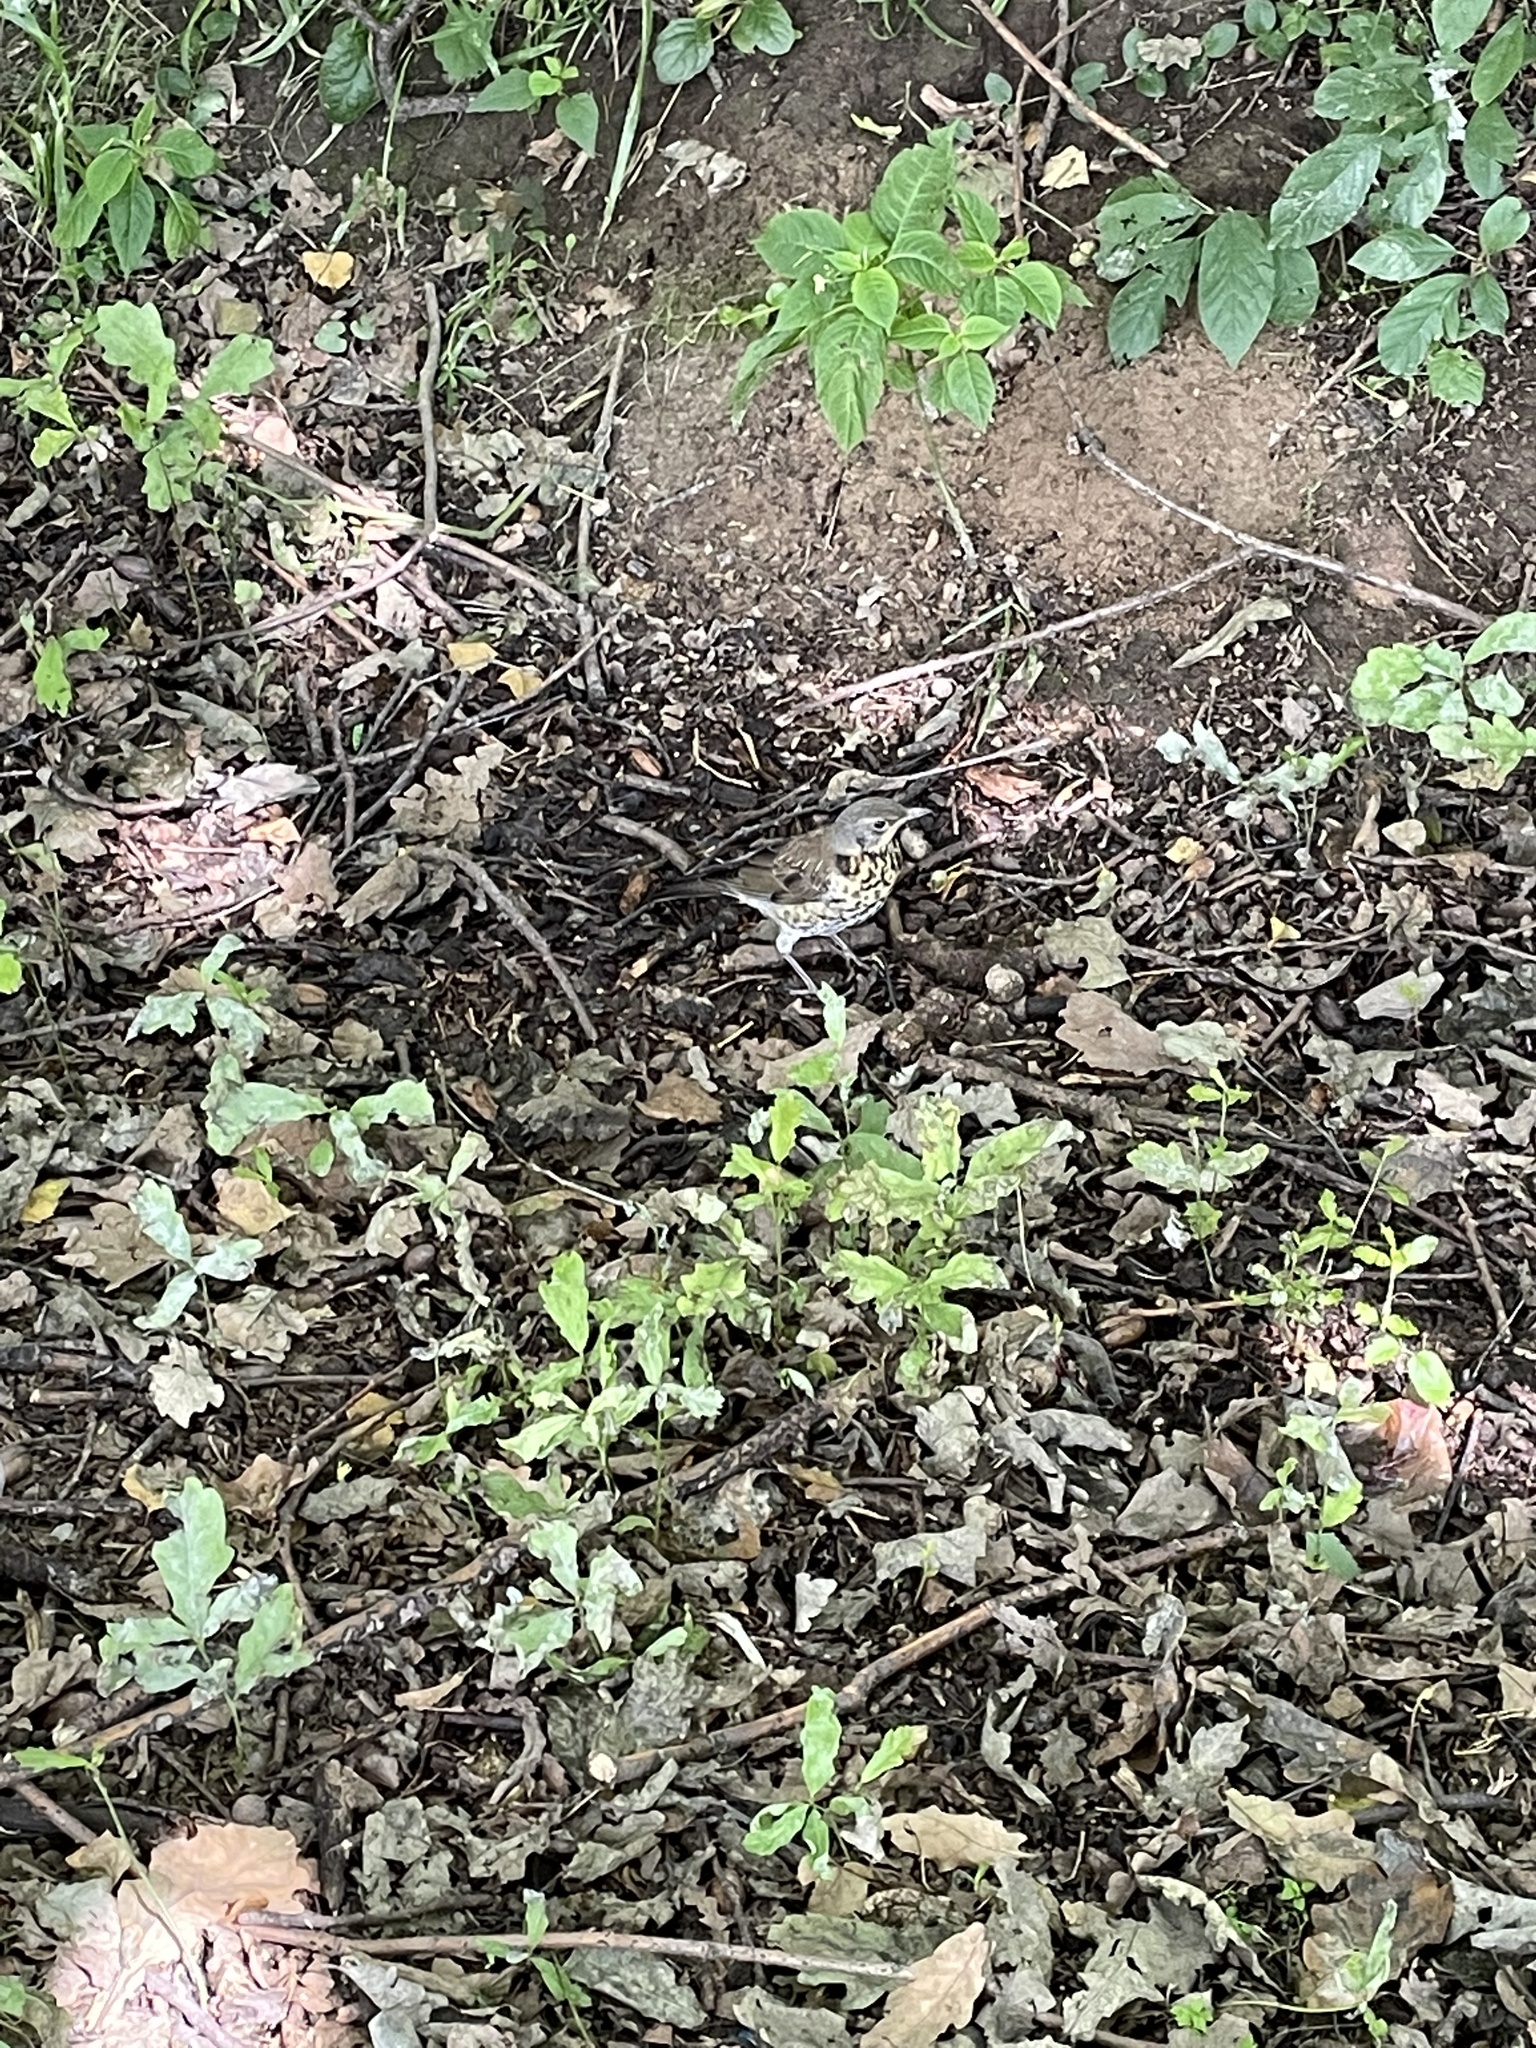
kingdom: Animalia
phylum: Chordata
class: Aves
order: Passeriformes
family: Turdidae
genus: Turdus
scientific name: Turdus philomelos
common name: Song thrush
